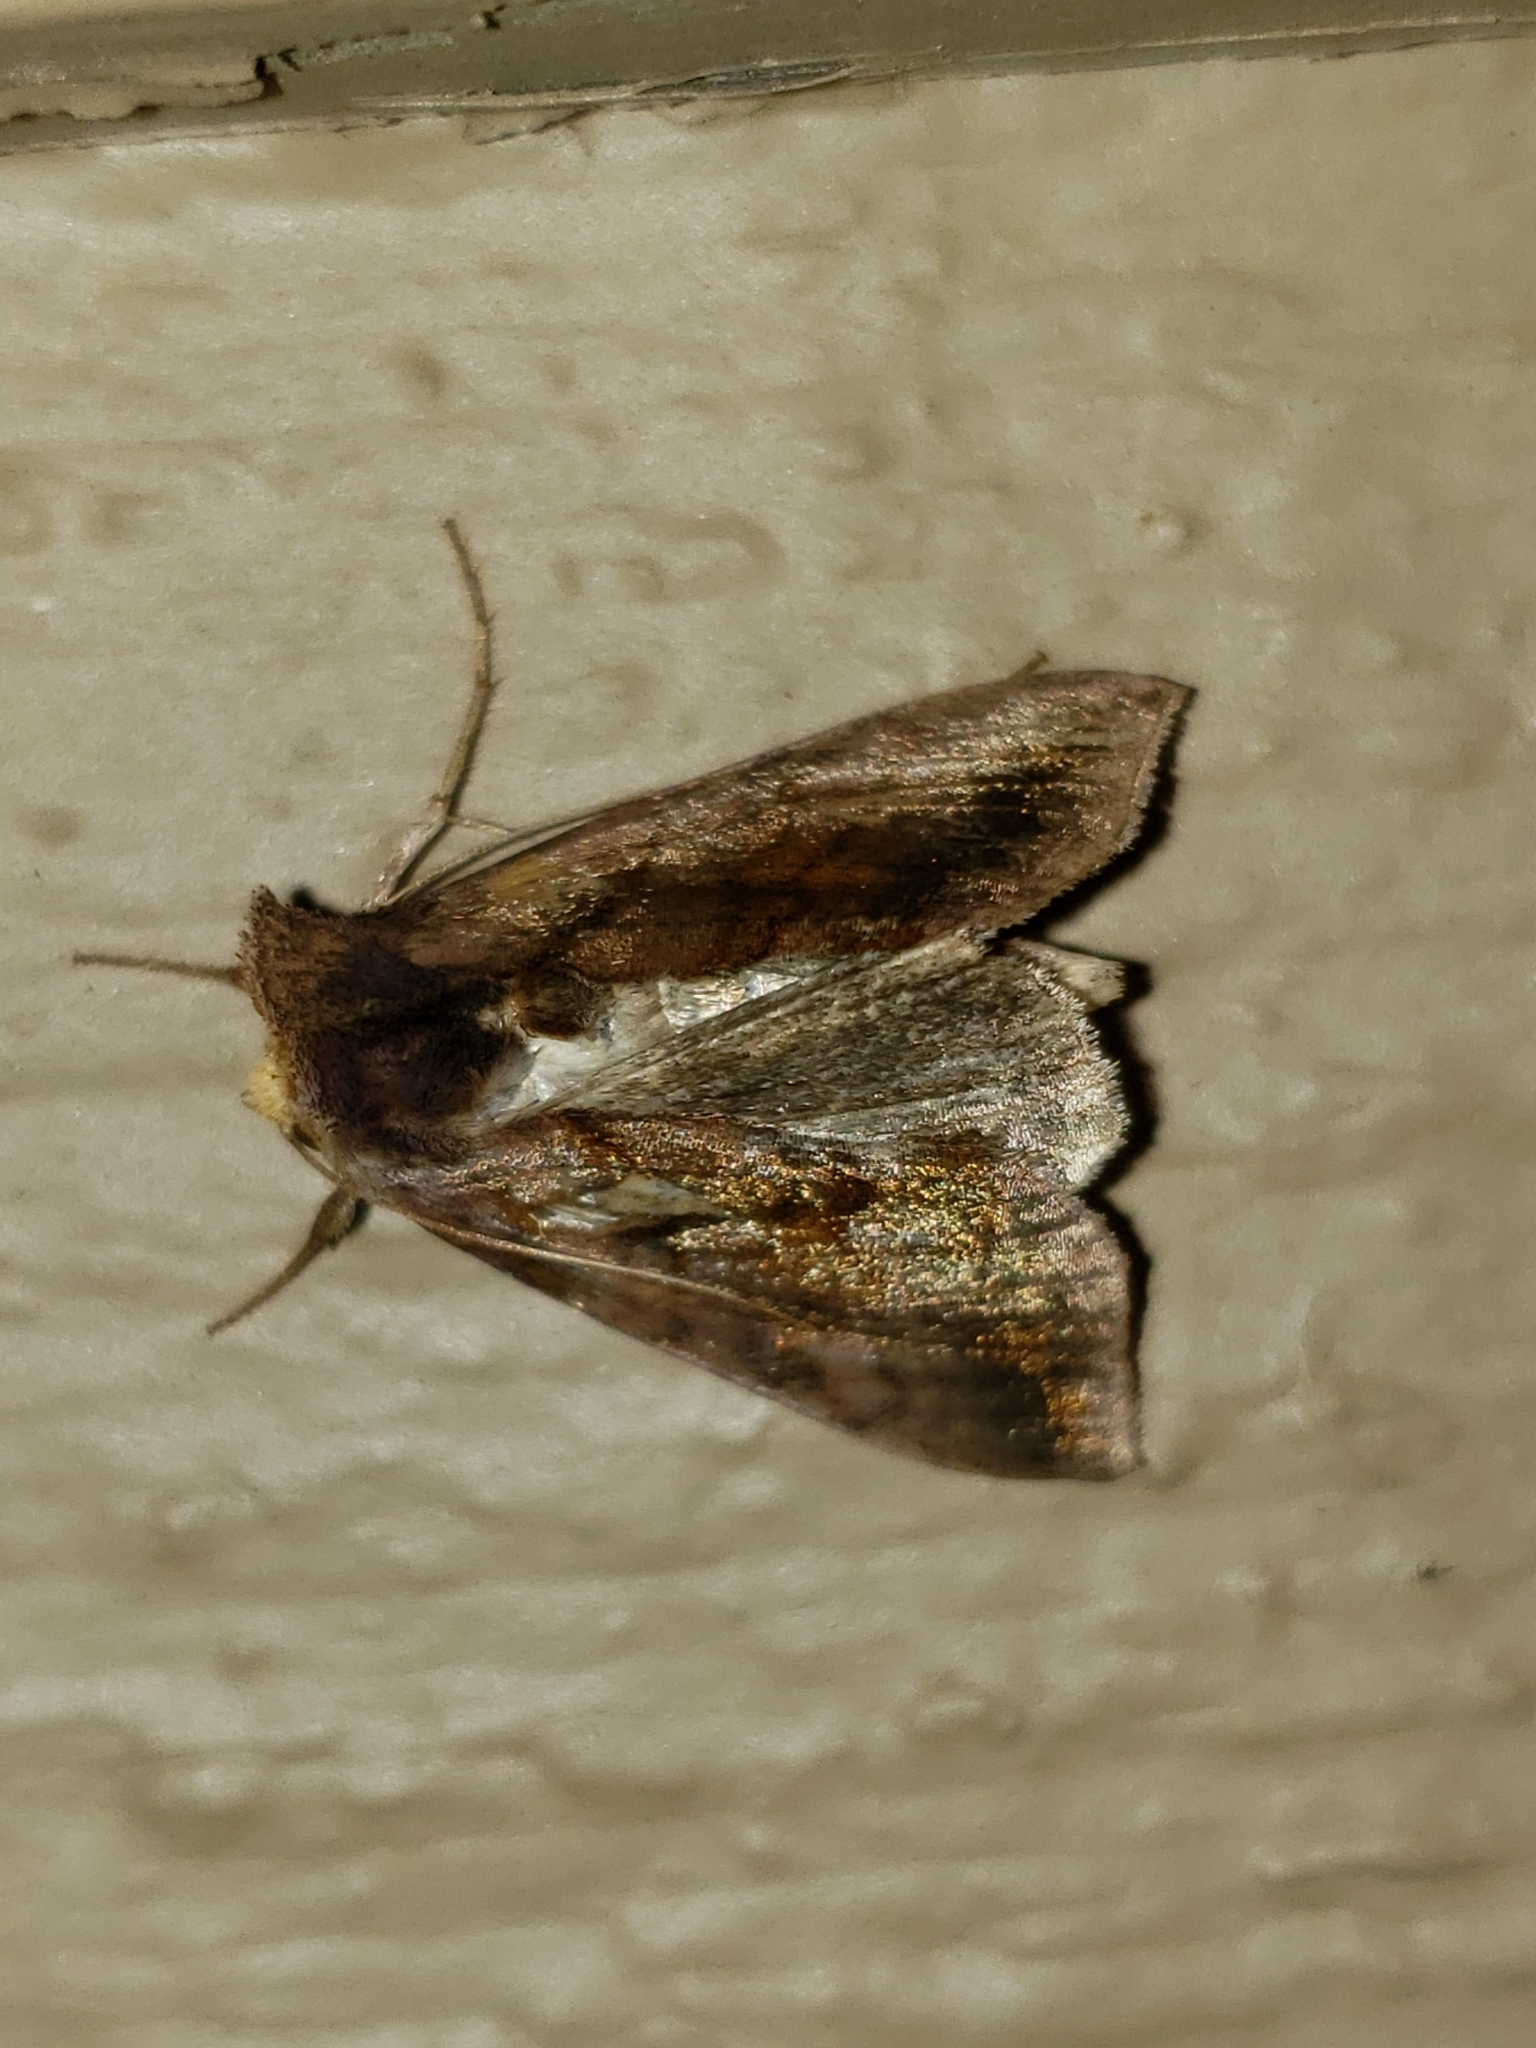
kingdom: Animalia
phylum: Arthropoda
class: Insecta
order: Lepidoptera
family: Noctuidae
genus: Allagrapha
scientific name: Allagrapha aerea
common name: Unspotted looper moth
